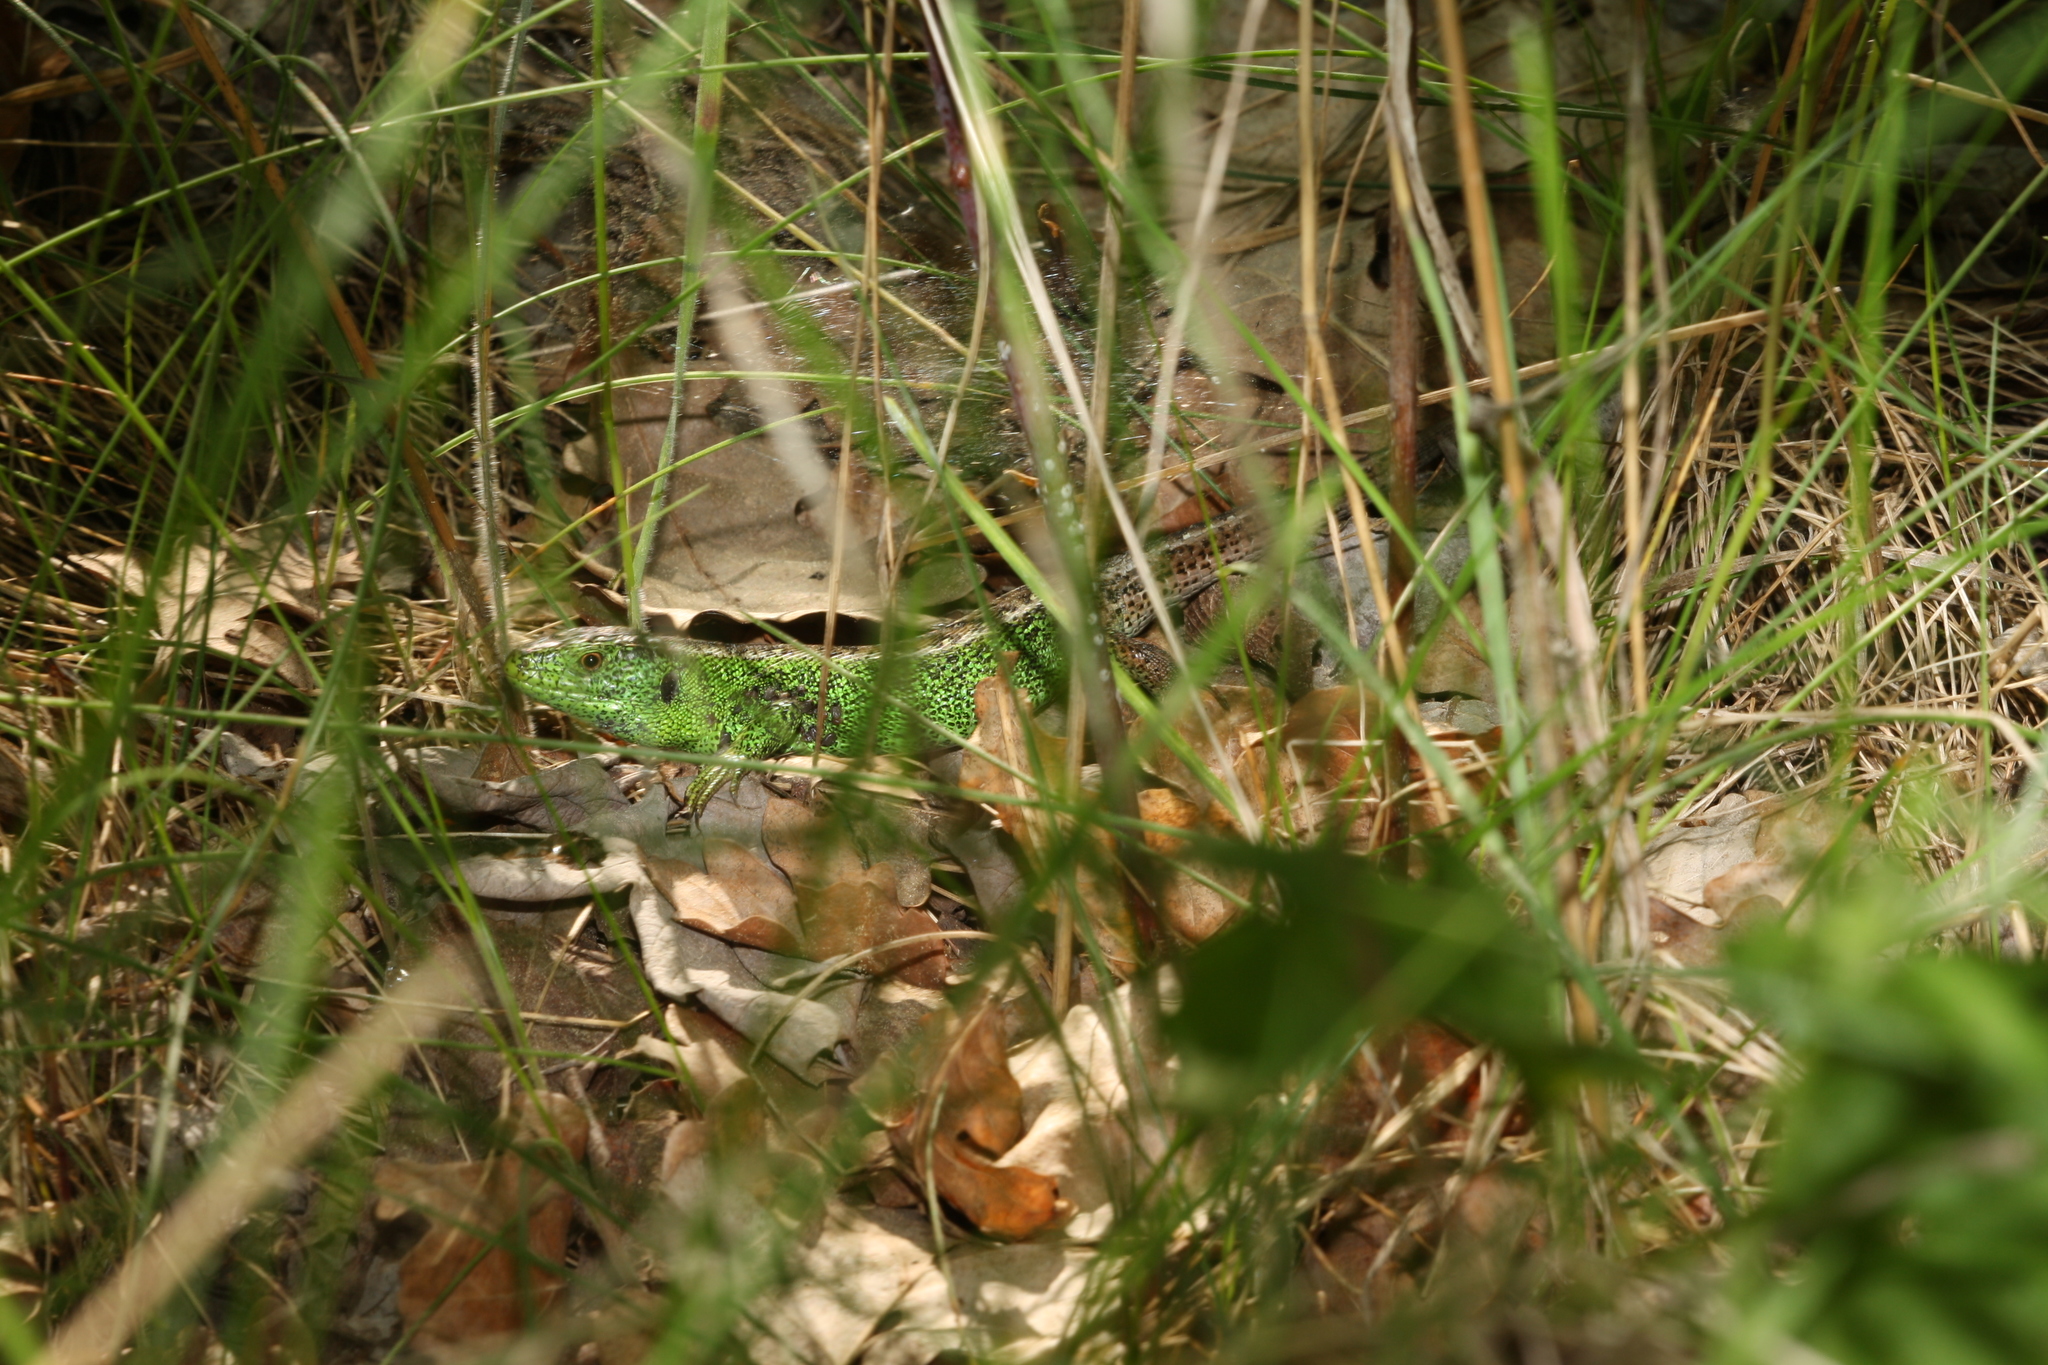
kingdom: Animalia
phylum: Chordata
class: Squamata
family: Lacertidae
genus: Lacerta
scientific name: Lacerta agilis
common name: Sand lizard
